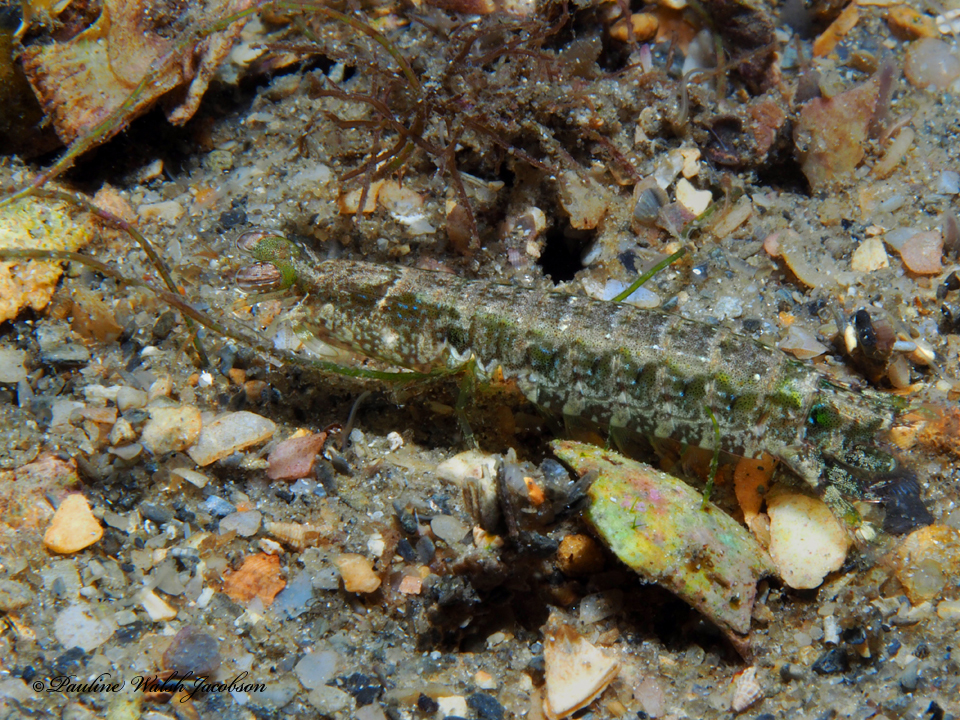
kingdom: Animalia
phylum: Arthropoda
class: Malacostraca
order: Stomatopoda
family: Pseudosquillidae
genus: Pseudosquilla
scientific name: Pseudosquilla ciliata
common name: Ciliated false squilla
